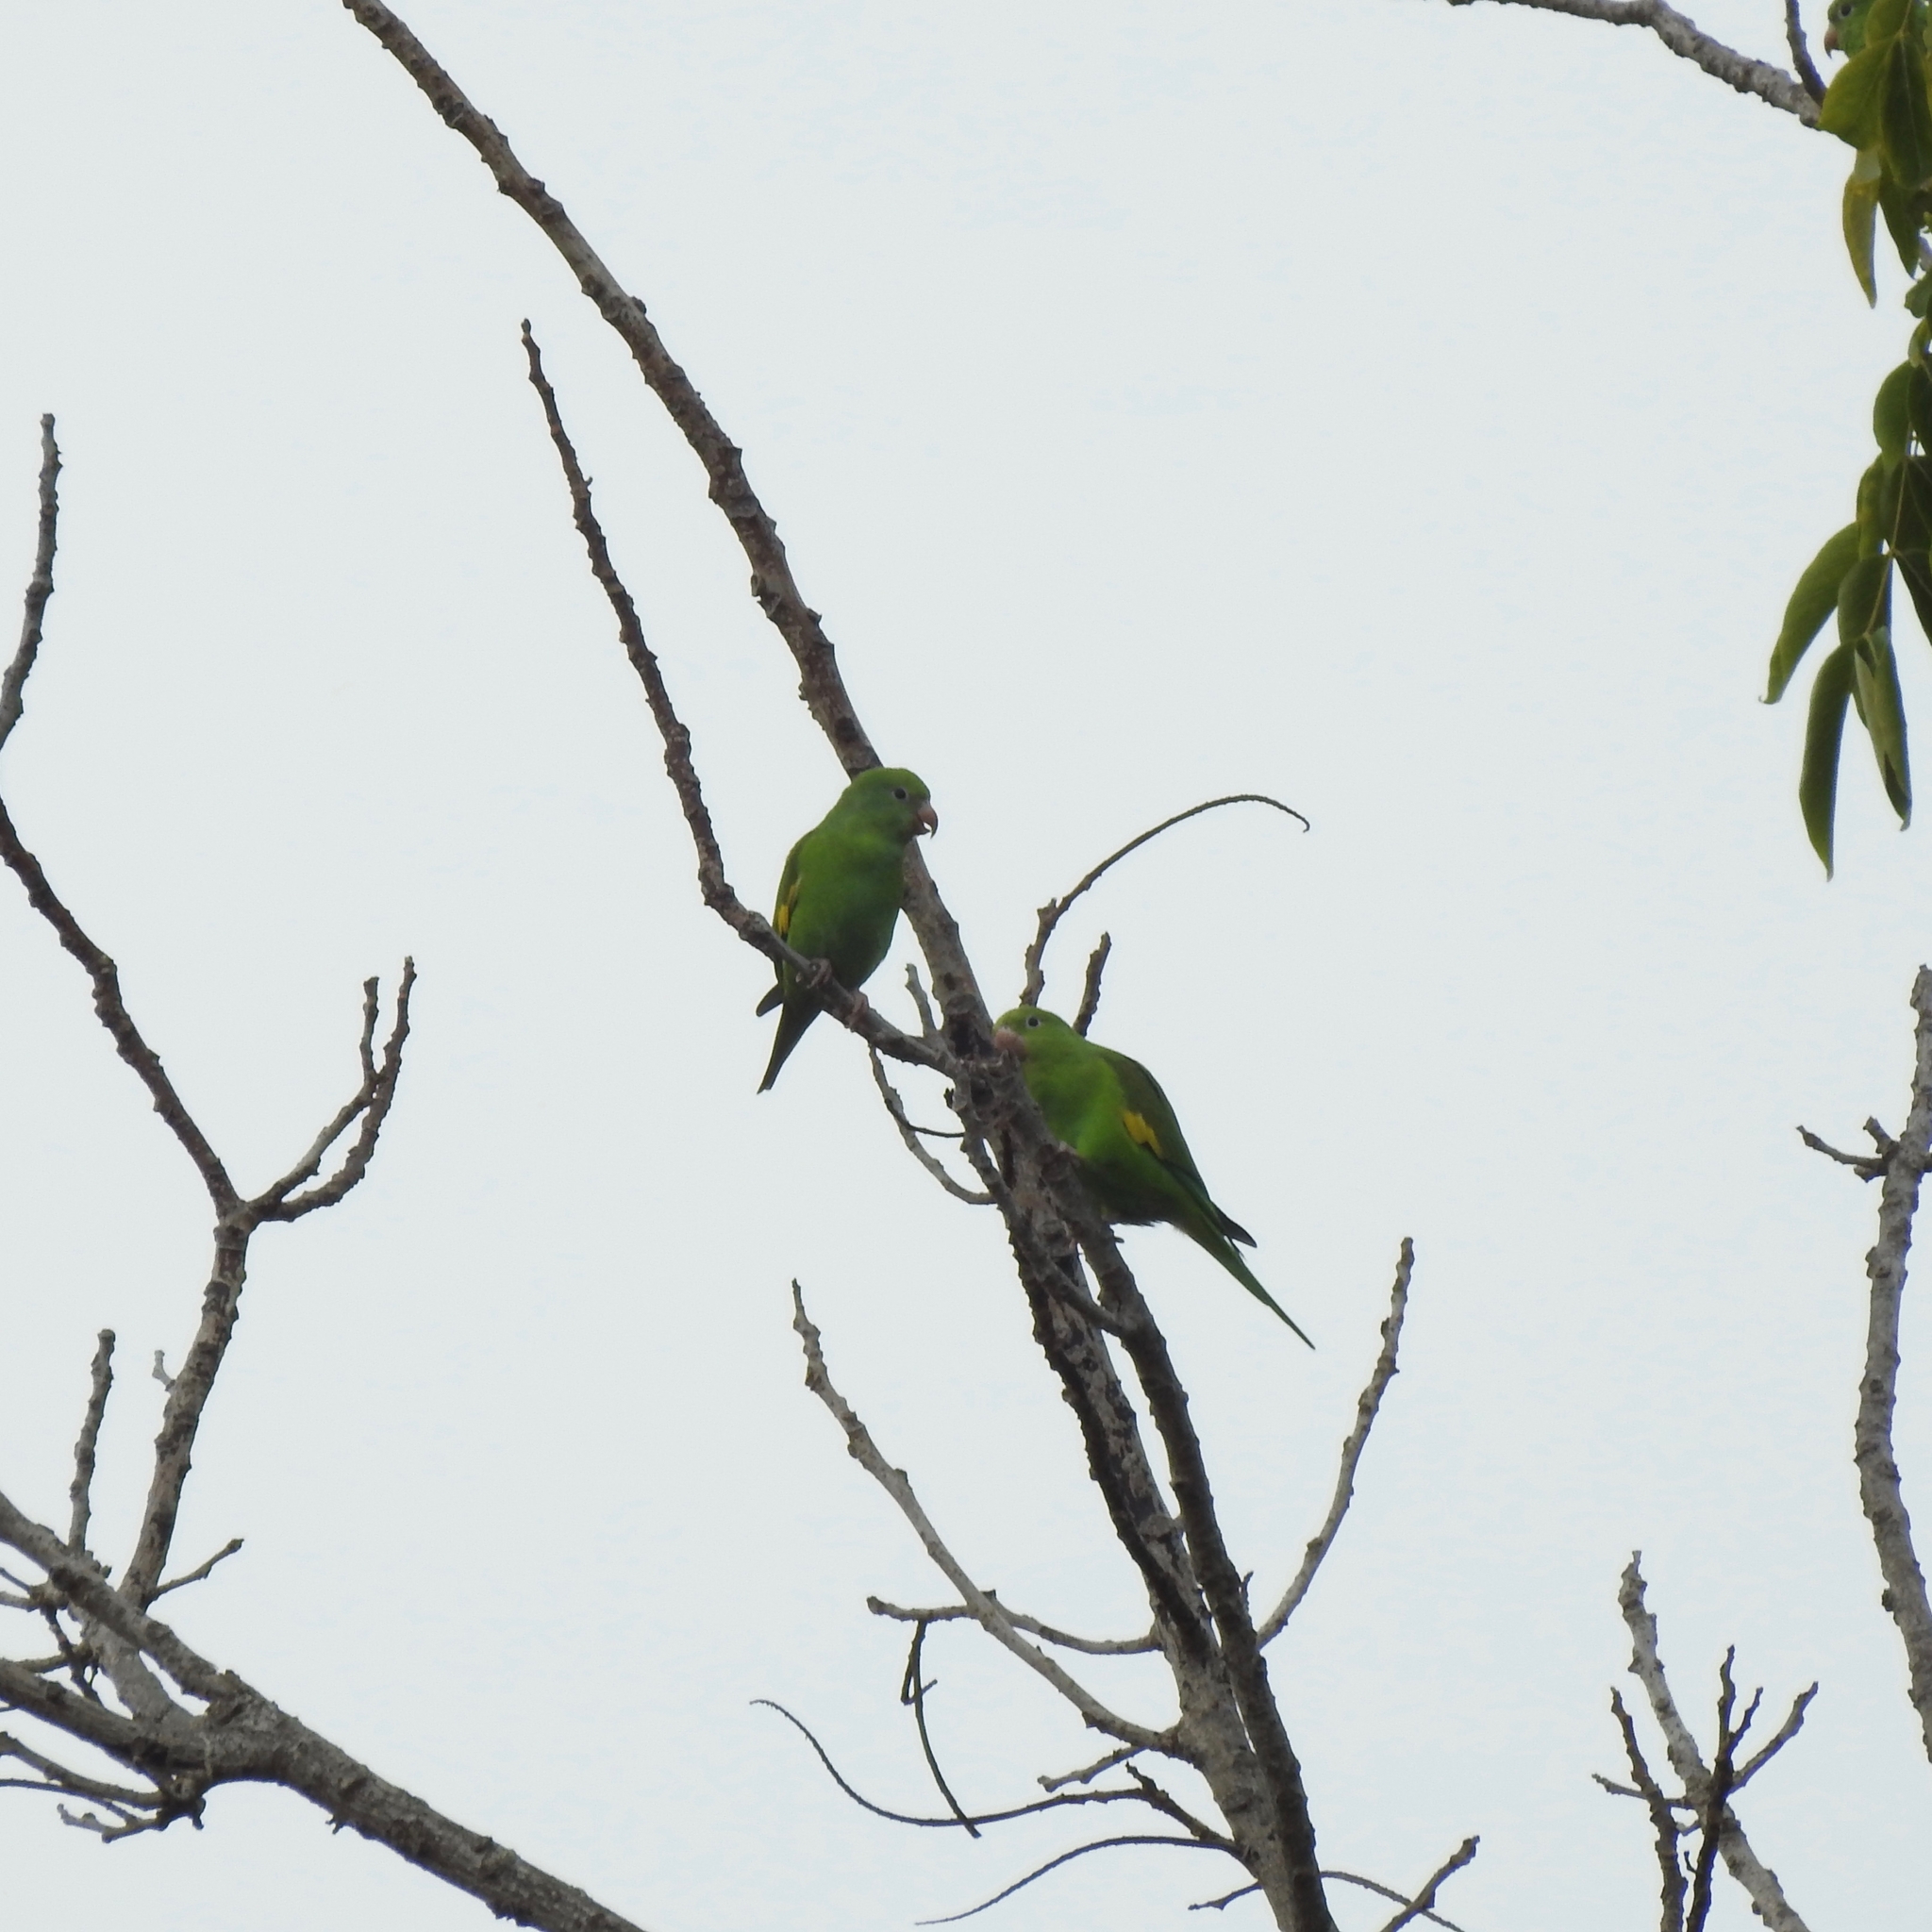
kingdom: Animalia
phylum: Chordata
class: Aves
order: Psittaciformes
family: Psittacidae
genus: Brotogeris
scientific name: Brotogeris chiriri
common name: Yellow-chevroned parakeet
